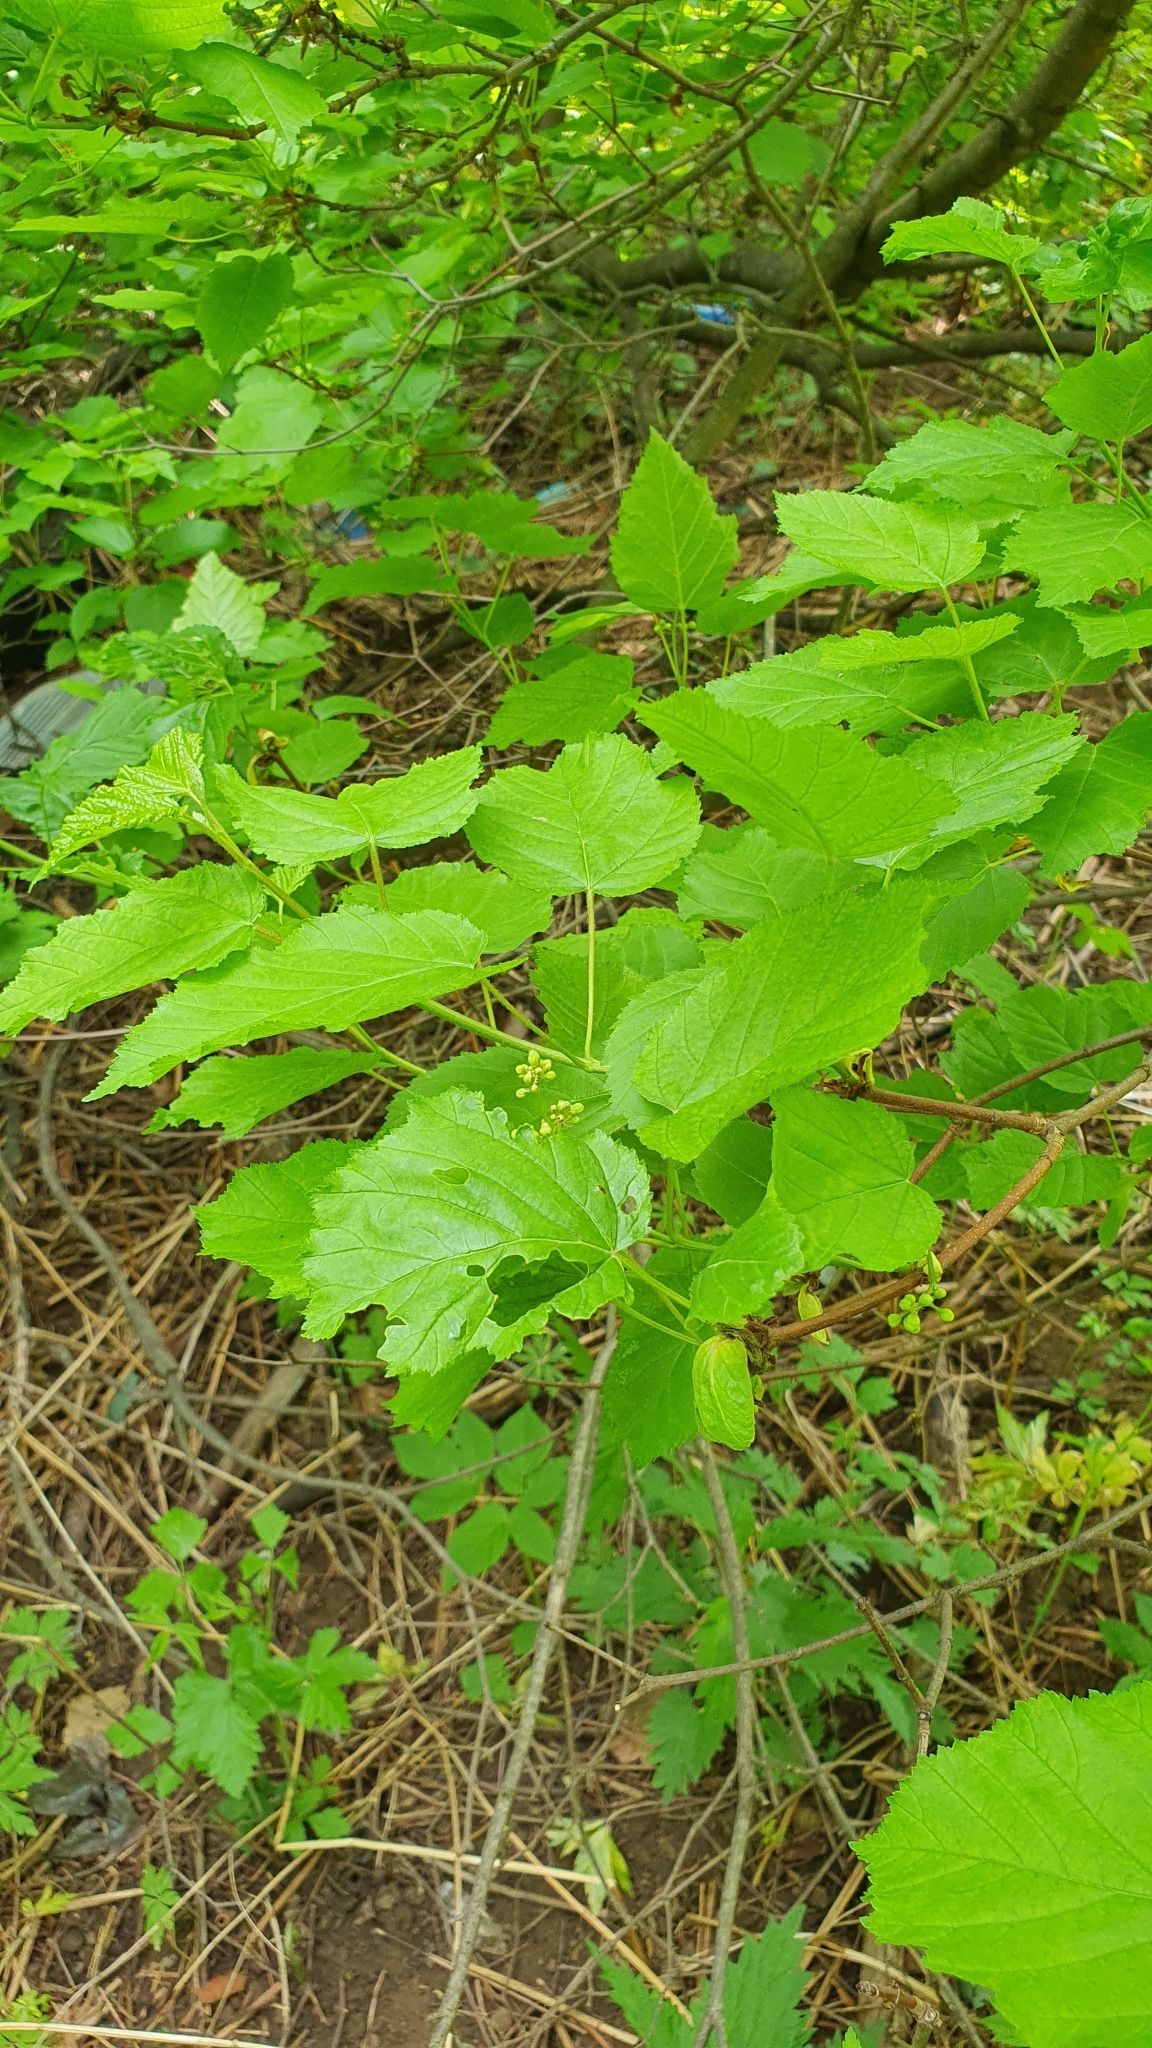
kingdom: Plantae
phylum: Tracheophyta
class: Magnoliopsida
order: Sapindales
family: Sapindaceae
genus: Acer
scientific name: Acer tataricum
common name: Tartar maple
